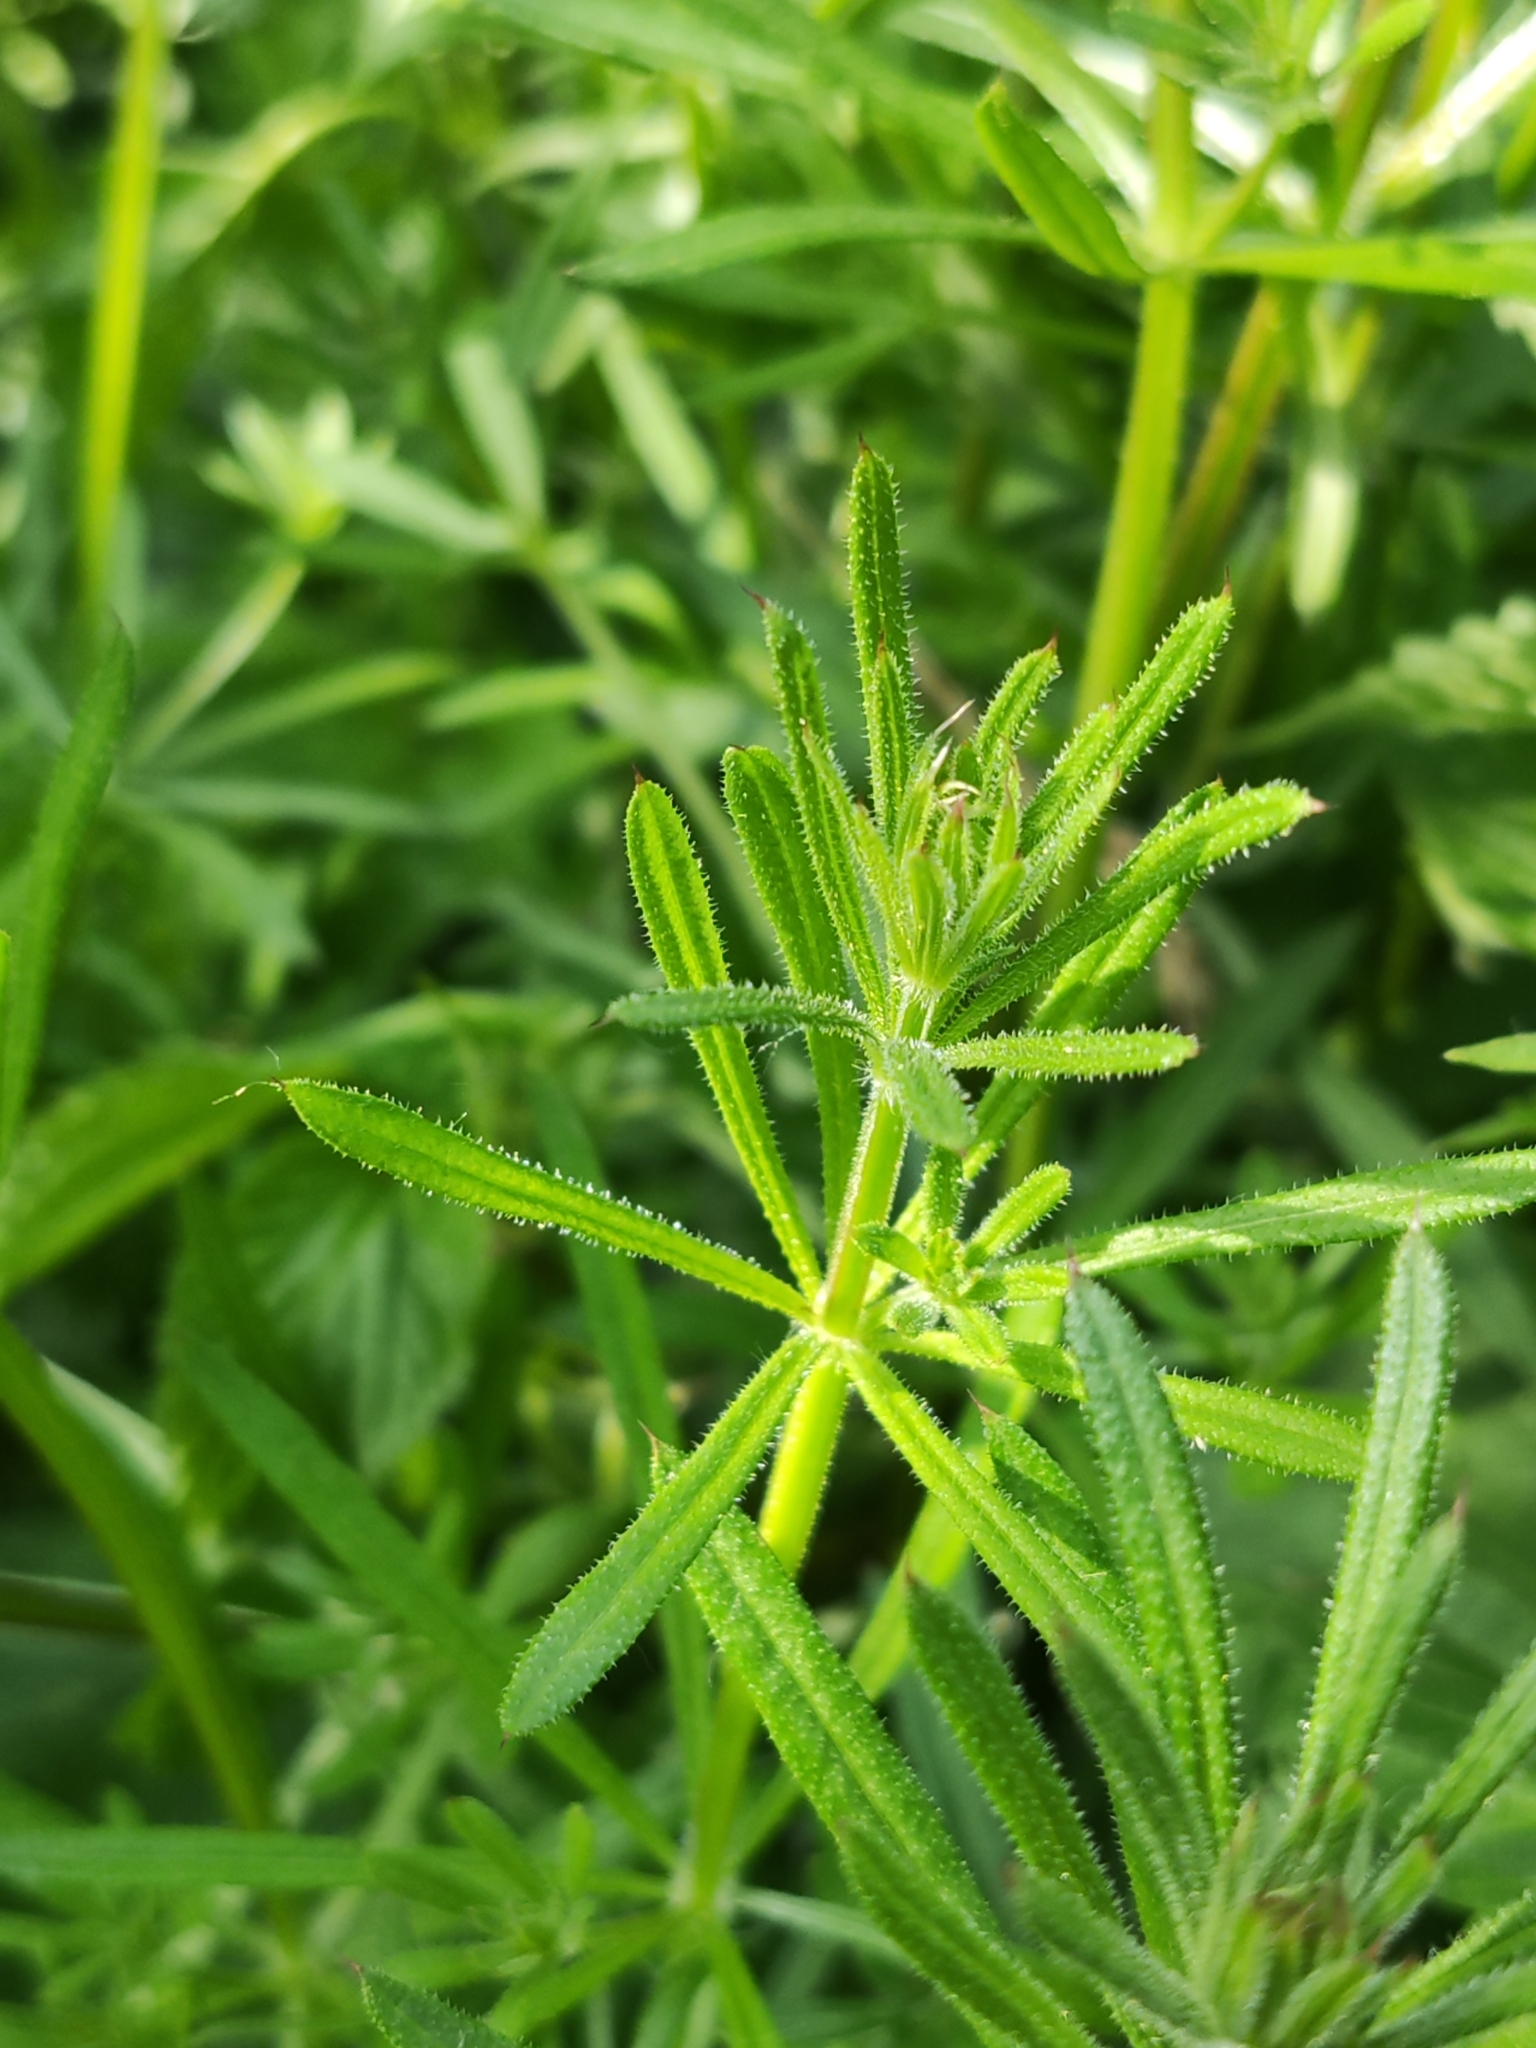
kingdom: Plantae
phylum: Tracheophyta
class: Magnoliopsida
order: Gentianales
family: Rubiaceae
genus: Galium
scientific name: Galium aparine
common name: Cleavers
